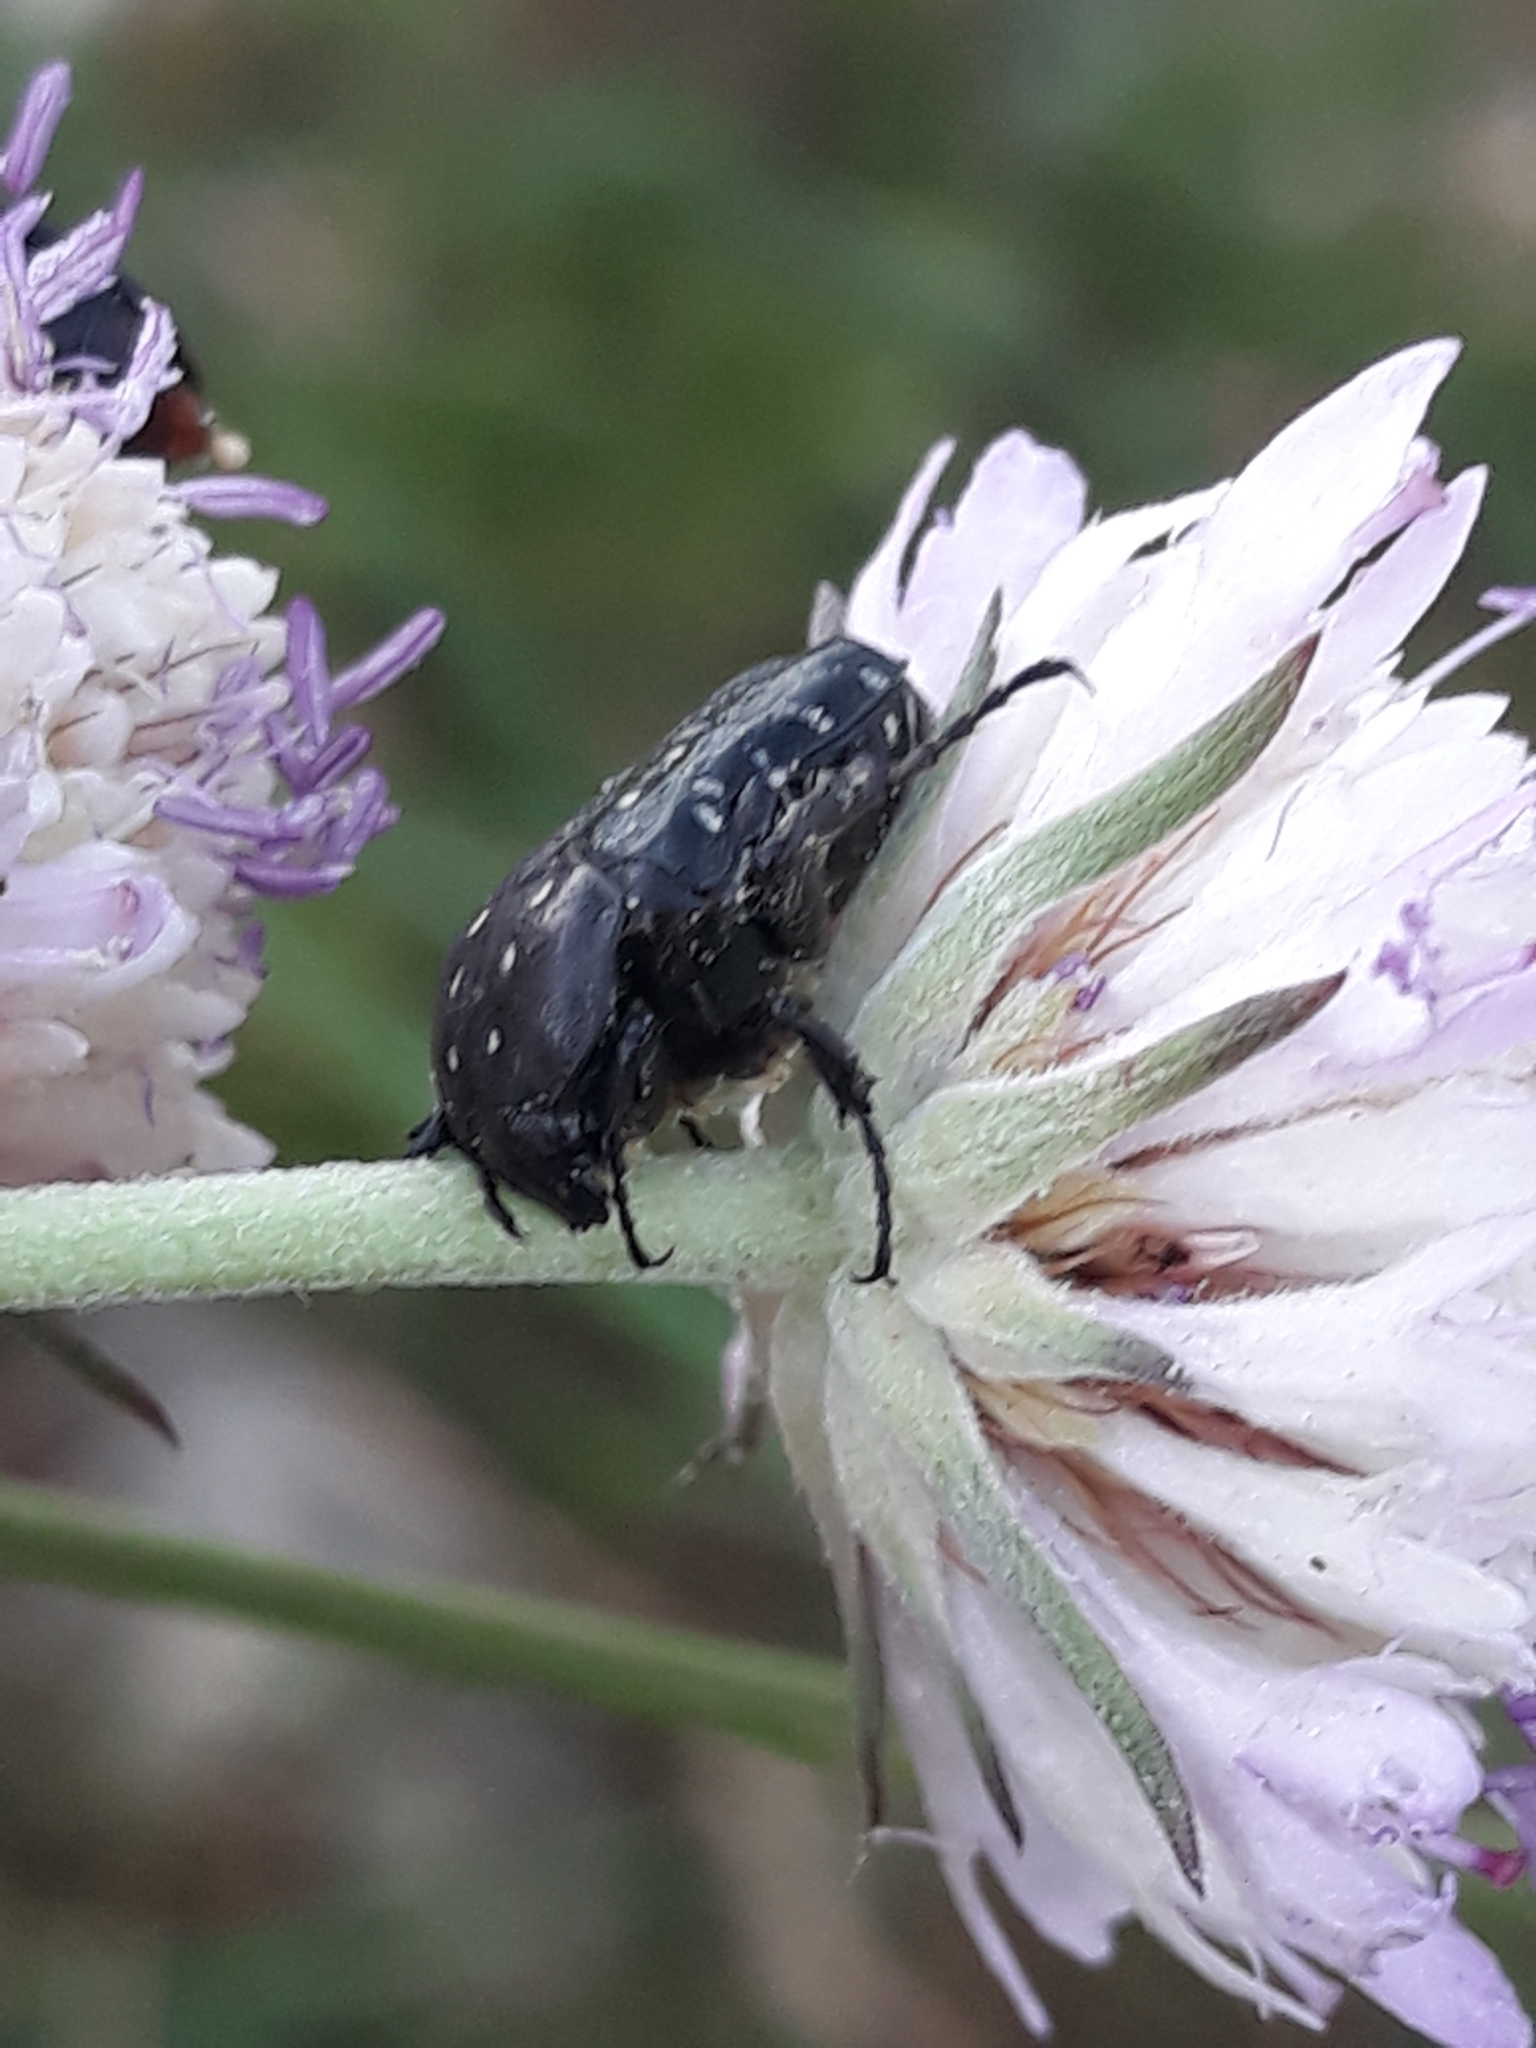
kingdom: Animalia
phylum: Arthropoda
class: Insecta
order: Coleoptera
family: Scarabaeidae
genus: Oxythyrea
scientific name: Oxythyrea funesta
